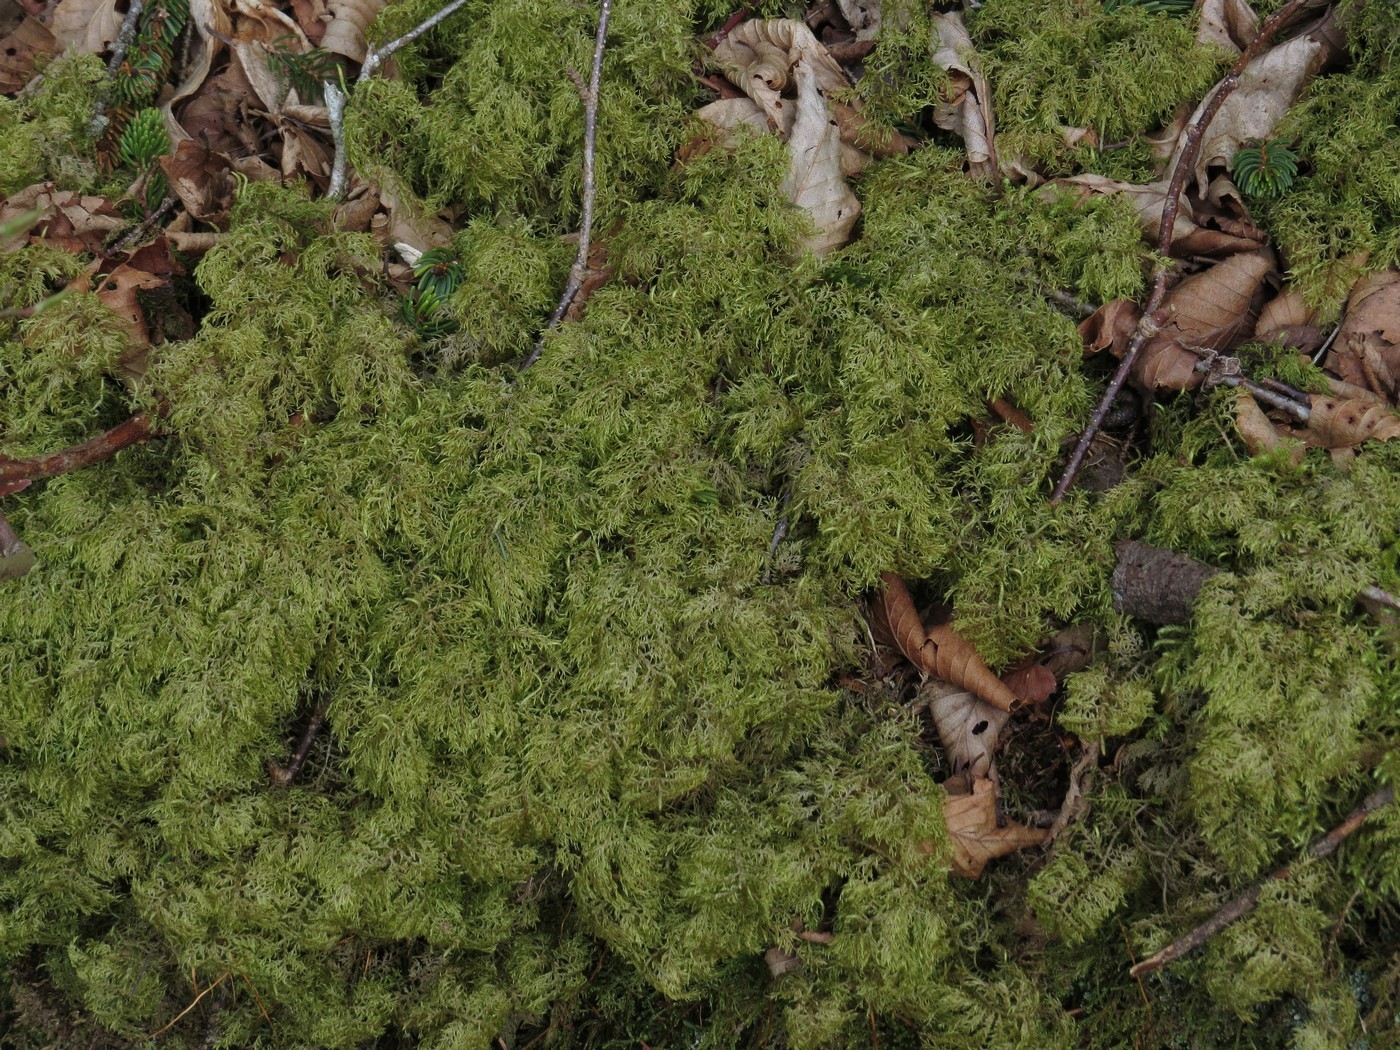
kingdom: Plantae
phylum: Bryophyta
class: Bryopsida
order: Hypnales
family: Hylocomiaceae
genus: Hylocomium
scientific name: Hylocomium splendens
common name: Stairstep moss
